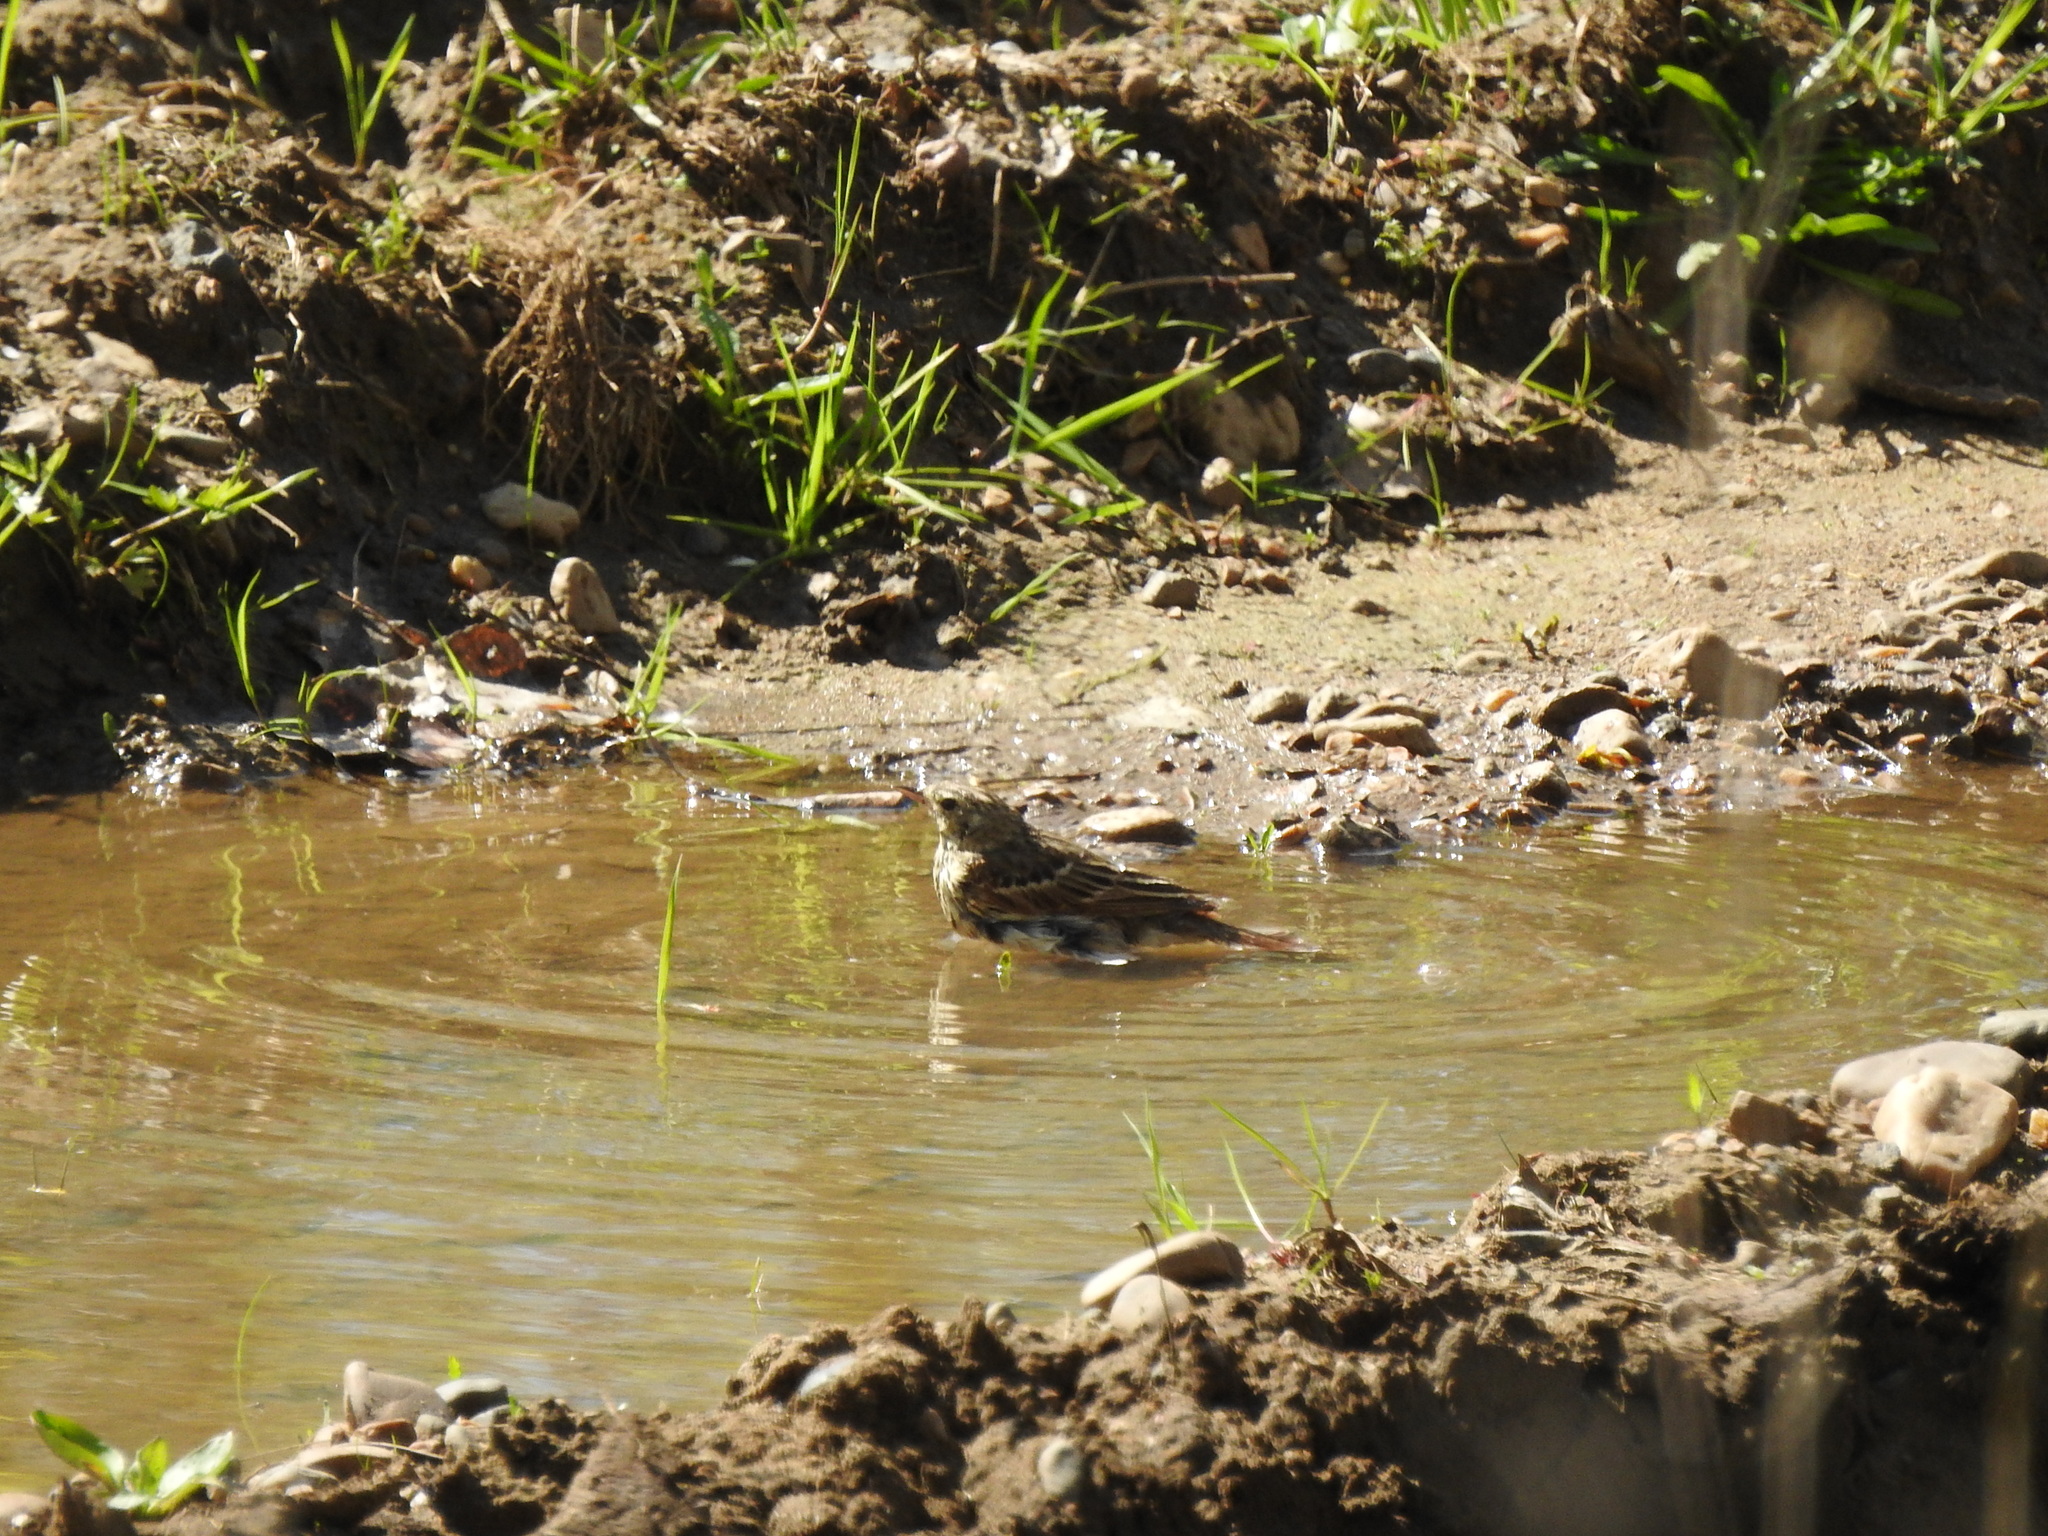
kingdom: Animalia
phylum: Chordata
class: Aves
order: Passeriformes
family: Motacillidae
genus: Anthus
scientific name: Anthus trivialis
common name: Tree pipit
